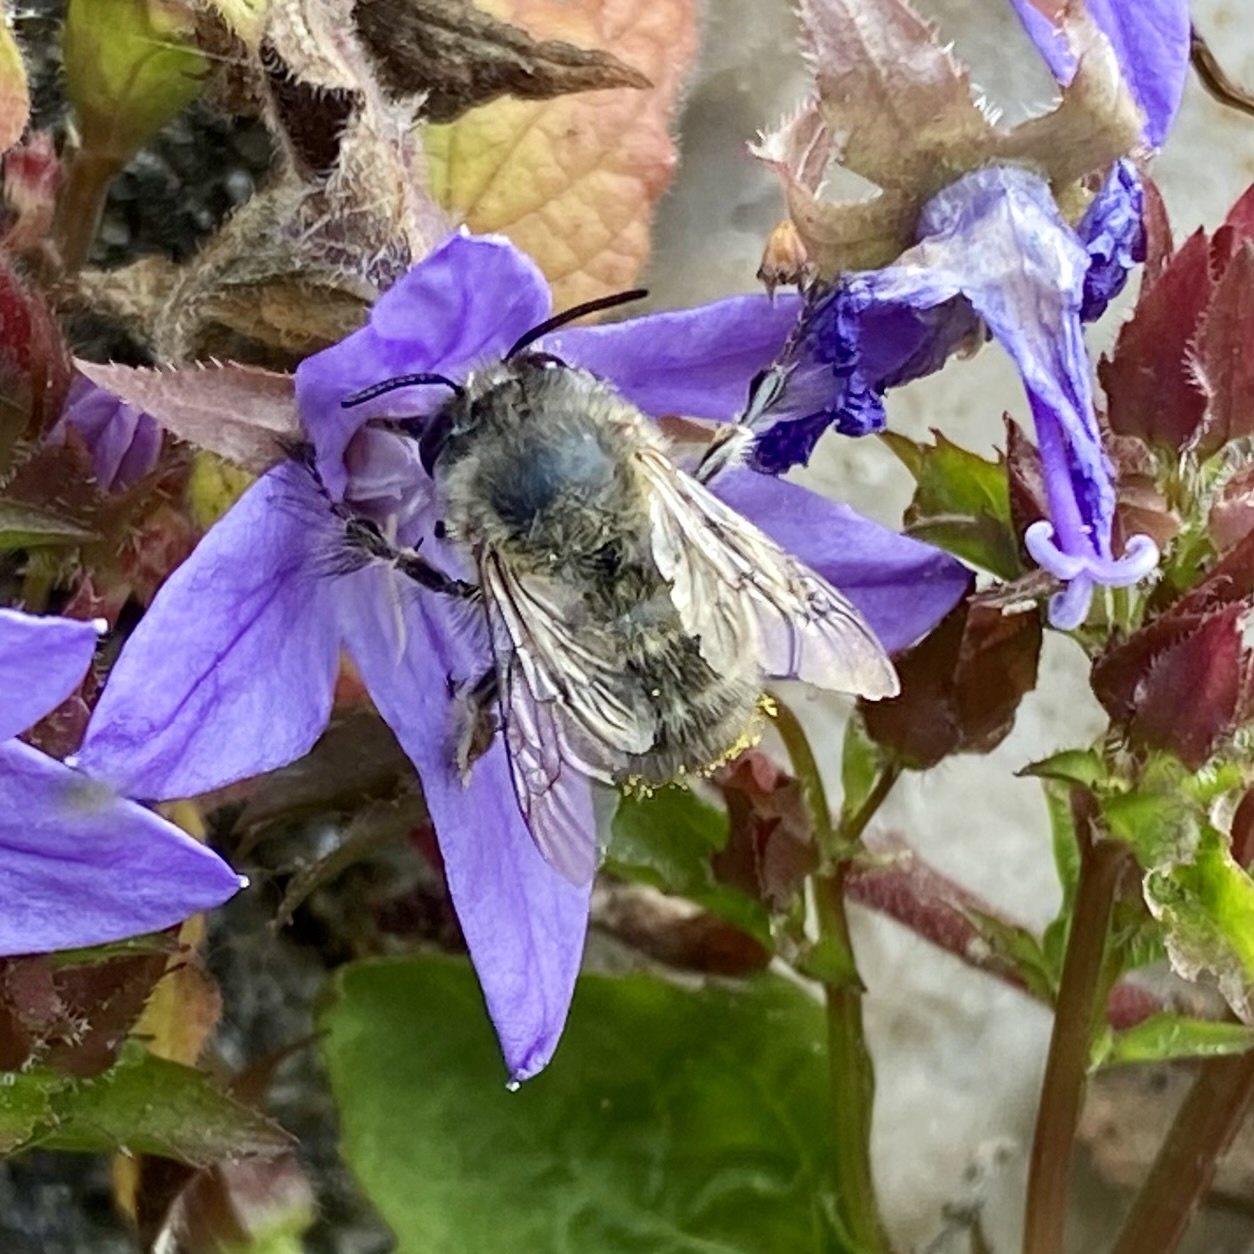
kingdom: Animalia
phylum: Arthropoda
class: Insecta
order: Hymenoptera
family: Apidae
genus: Anthophora
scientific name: Anthophora plumipes
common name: Hairy-footed flower bee
